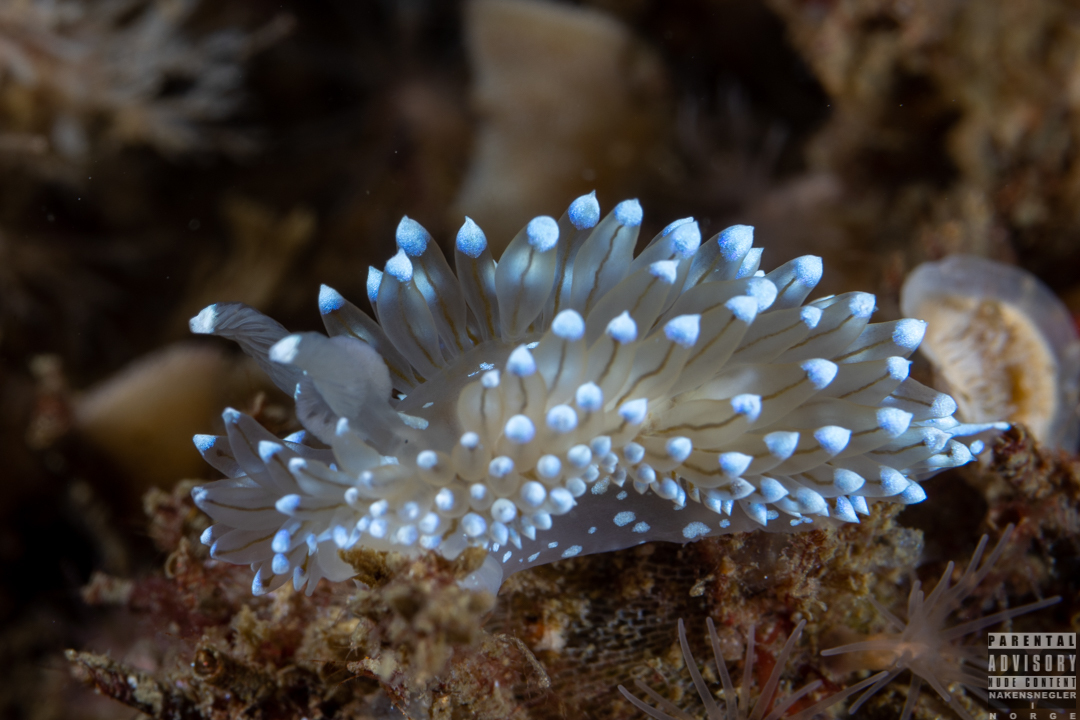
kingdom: Animalia
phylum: Mollusca
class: Gastropoda
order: Nudibranchia
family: Janolidae
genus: Antiopella
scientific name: Antiopella cristata
